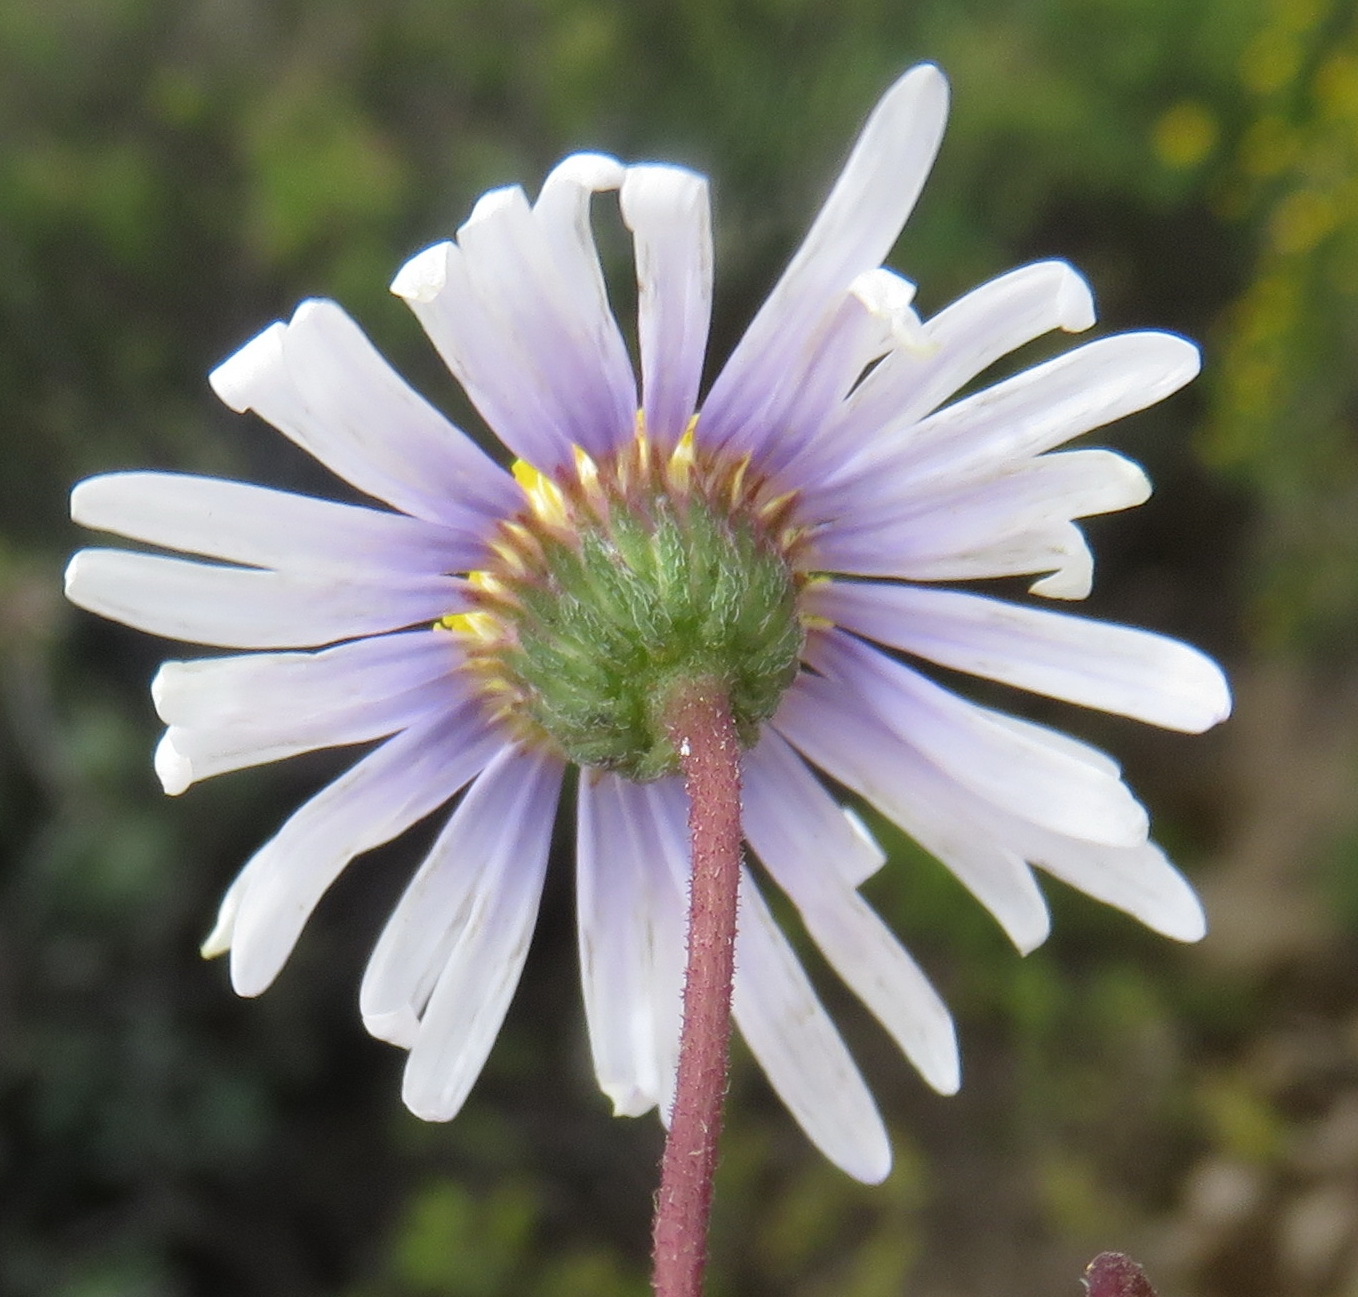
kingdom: Plantae
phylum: Tracheophyta
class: Magnoliopsida
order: Asterales
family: Asteraceae
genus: Felicia
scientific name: Felicia muricata
